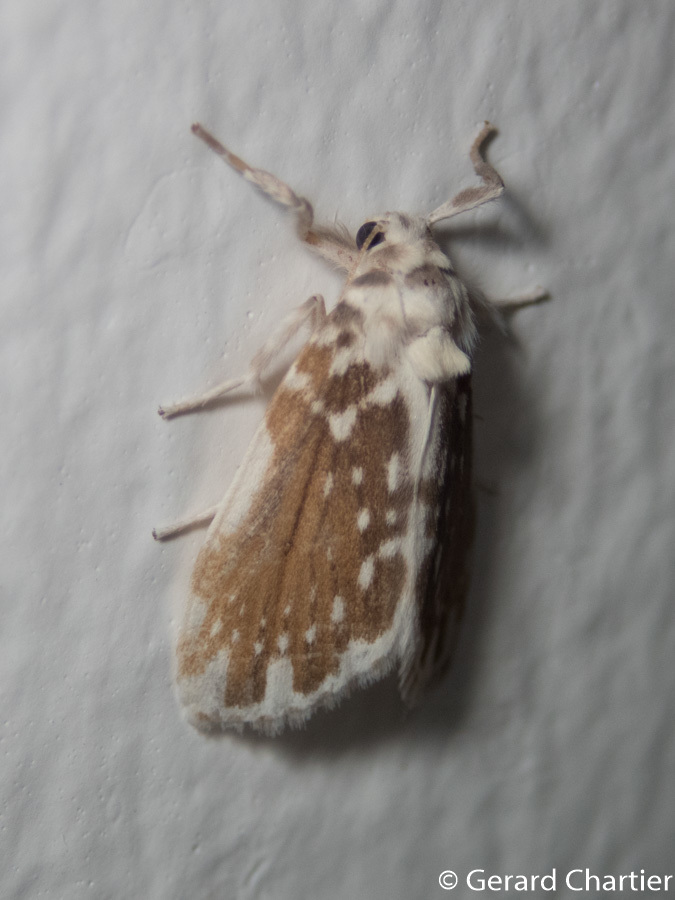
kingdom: Animalia
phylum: Arthropoda
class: Insecta
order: Lepidoptera
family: Erebidae
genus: Pseudoadites
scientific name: Pseudoadites frigida
